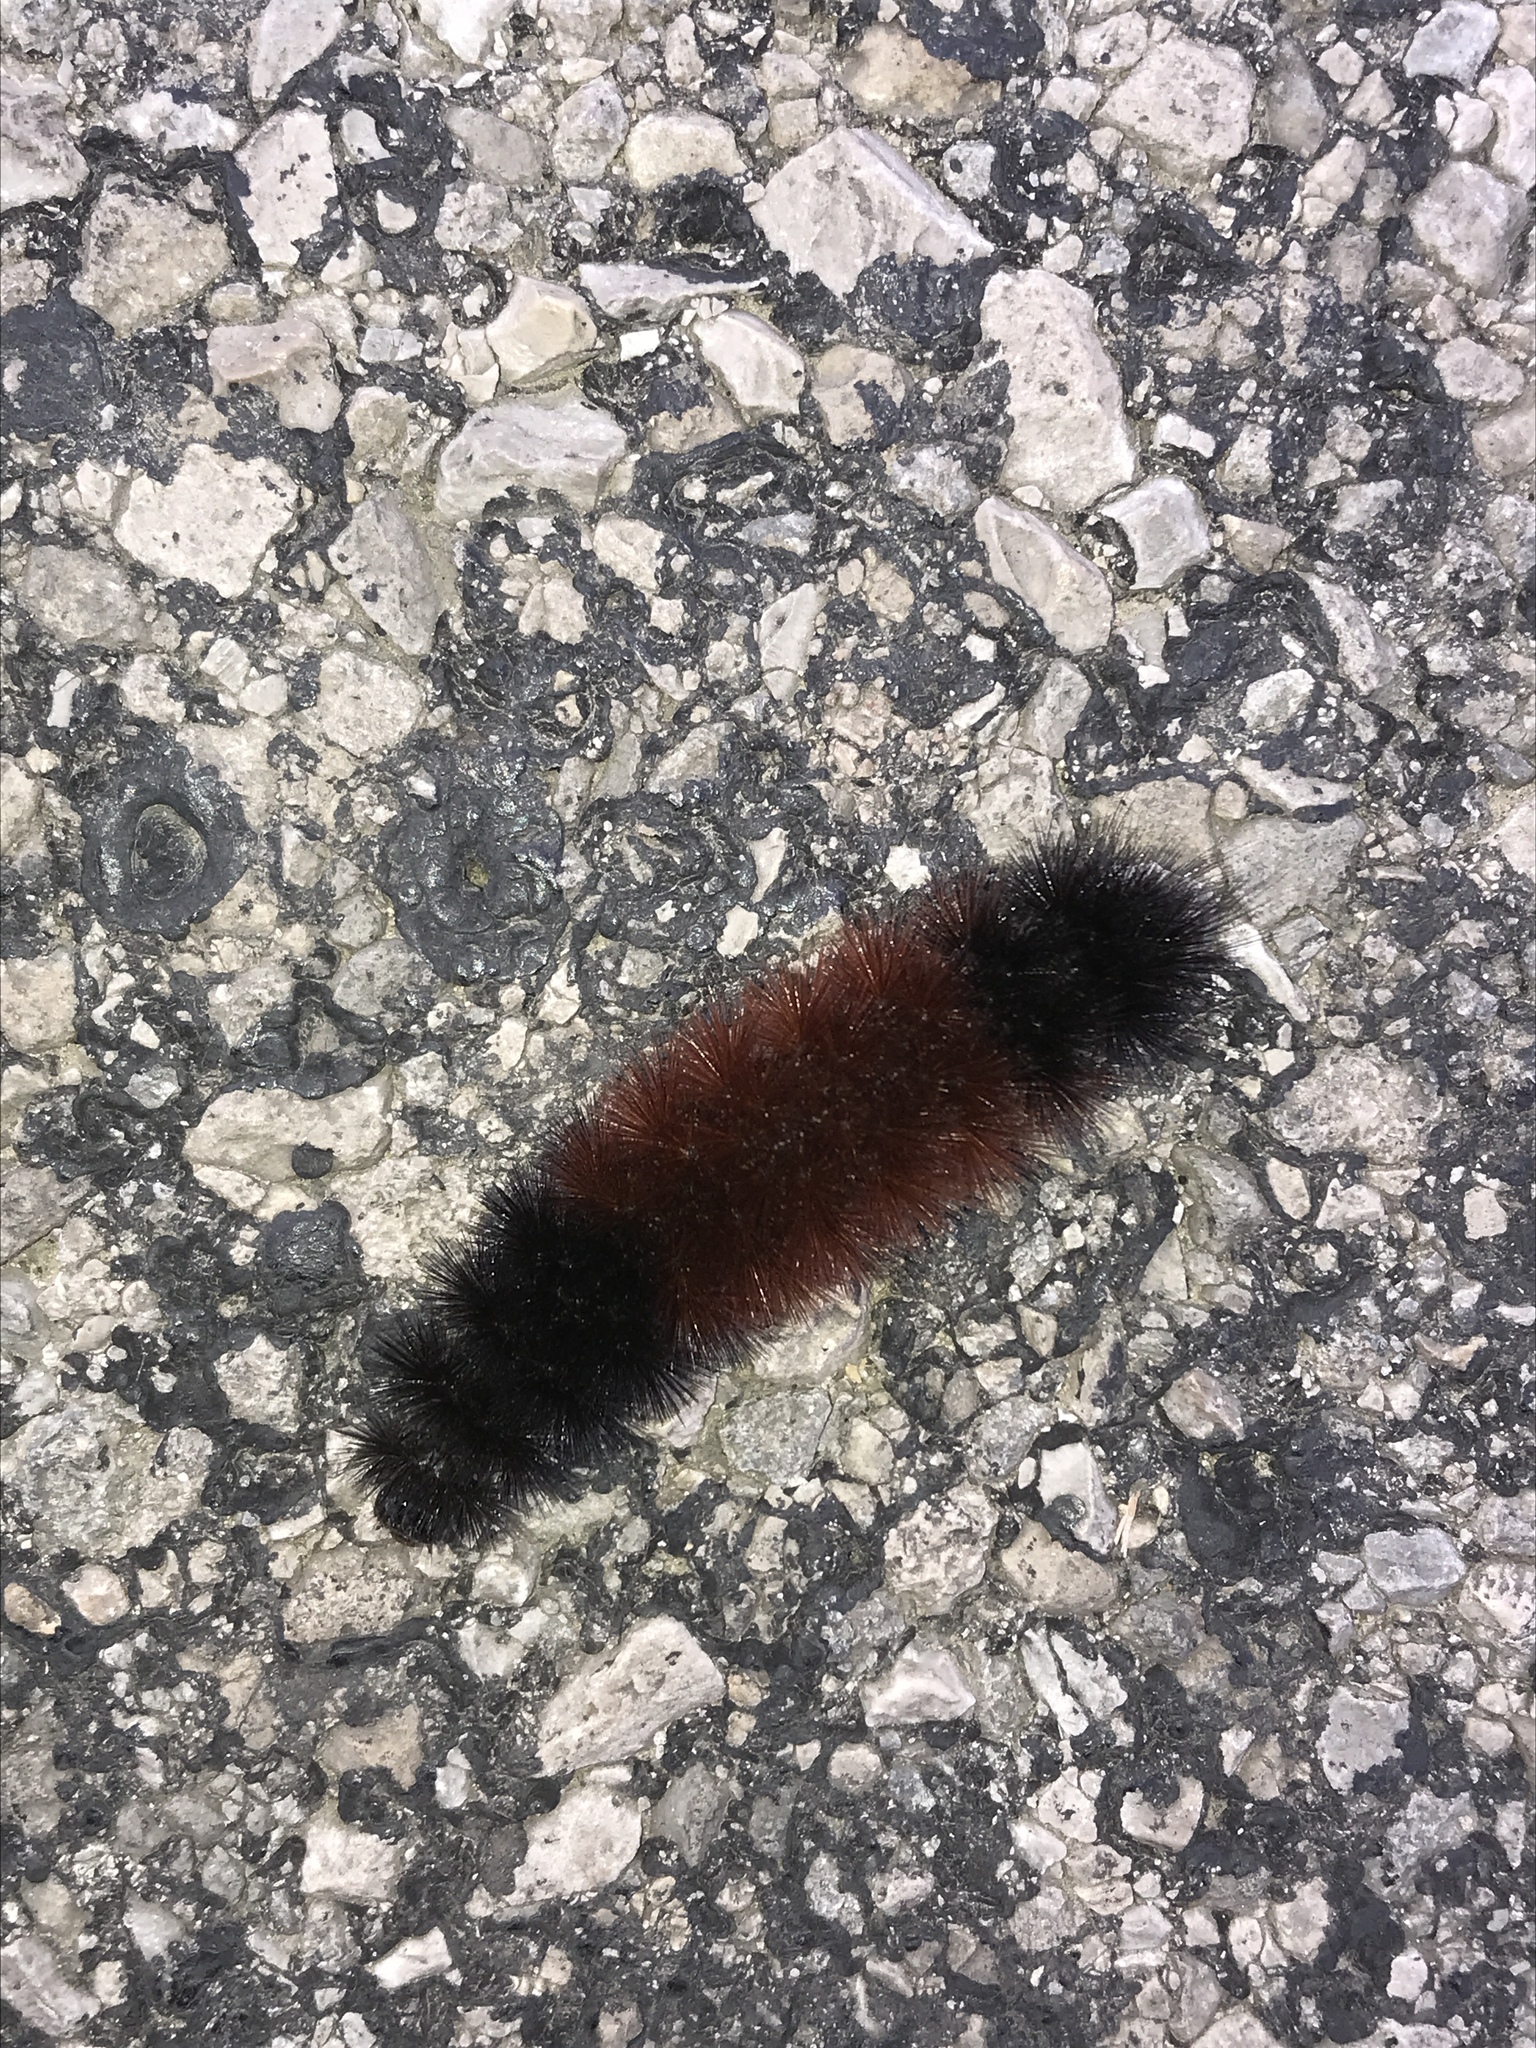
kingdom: Animalia
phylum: Arthropoda
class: Insecta
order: Lepidoptera
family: Erebidae
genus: Pyrrharctia
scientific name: Pyrrharctia isabella
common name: Isabella tiger moth
